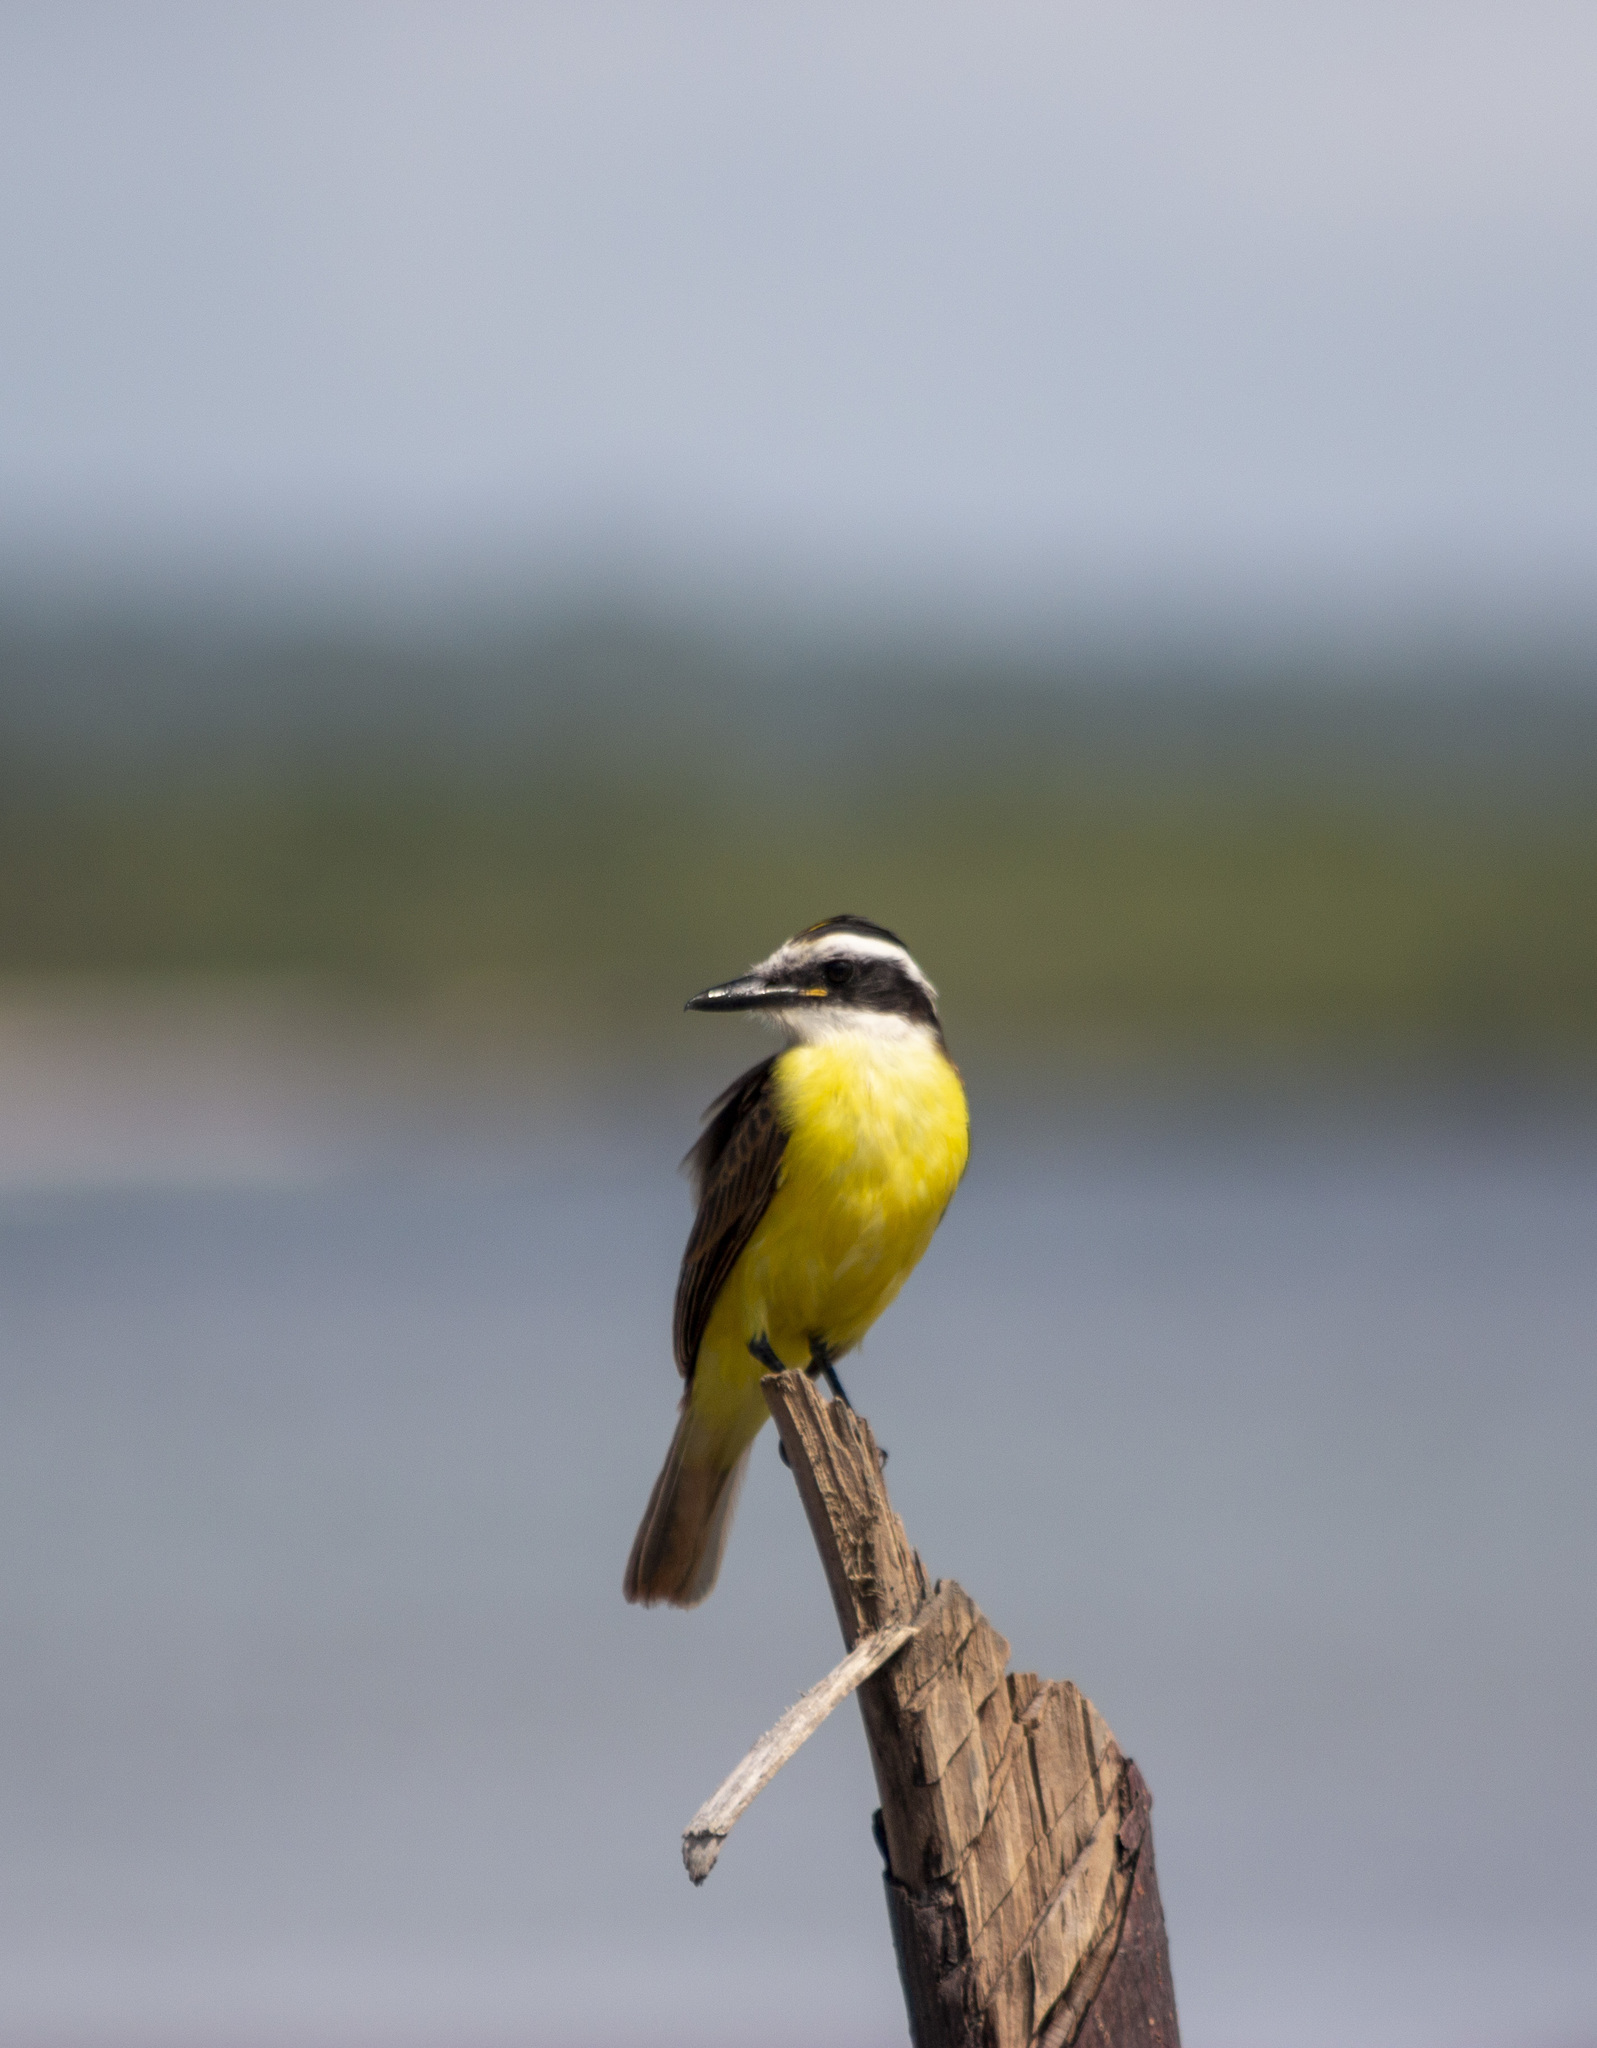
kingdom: Animalia
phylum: Chordata
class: Aves
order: Passeriformes
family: Tyrannidae
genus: Pitangus
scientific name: Pitangus sulphuratus
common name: Great kiskadee
